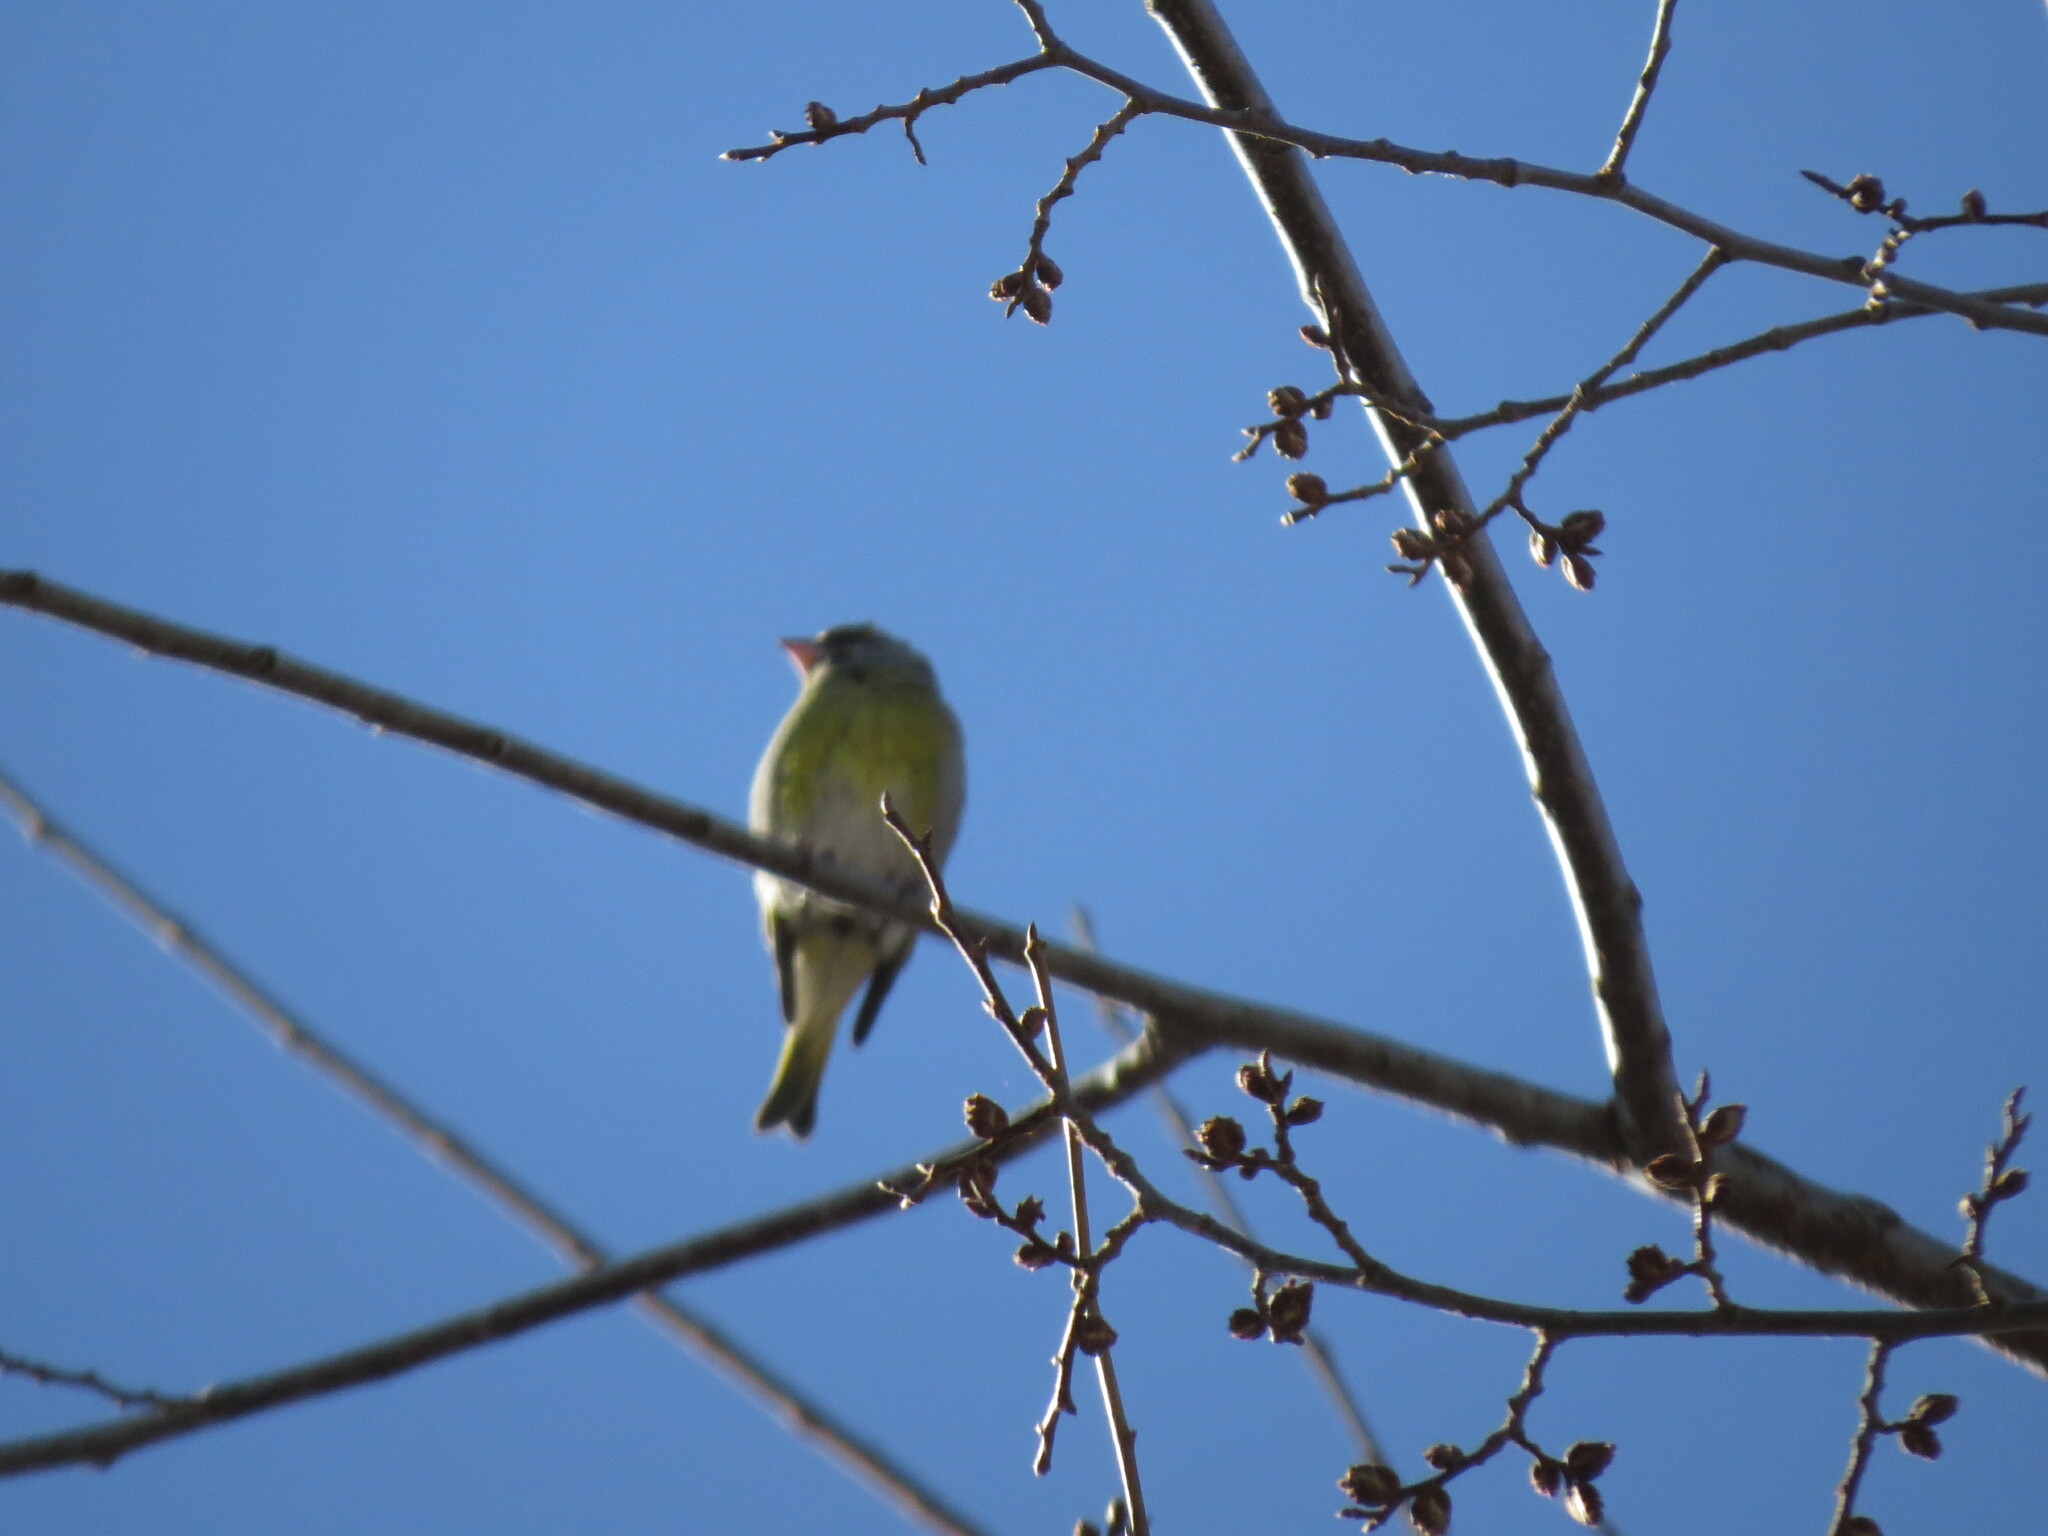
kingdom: Plantae
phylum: Tracheophyta
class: Liliopsida
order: Poales
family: Poaceae
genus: Chloris
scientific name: Chloris chloris
